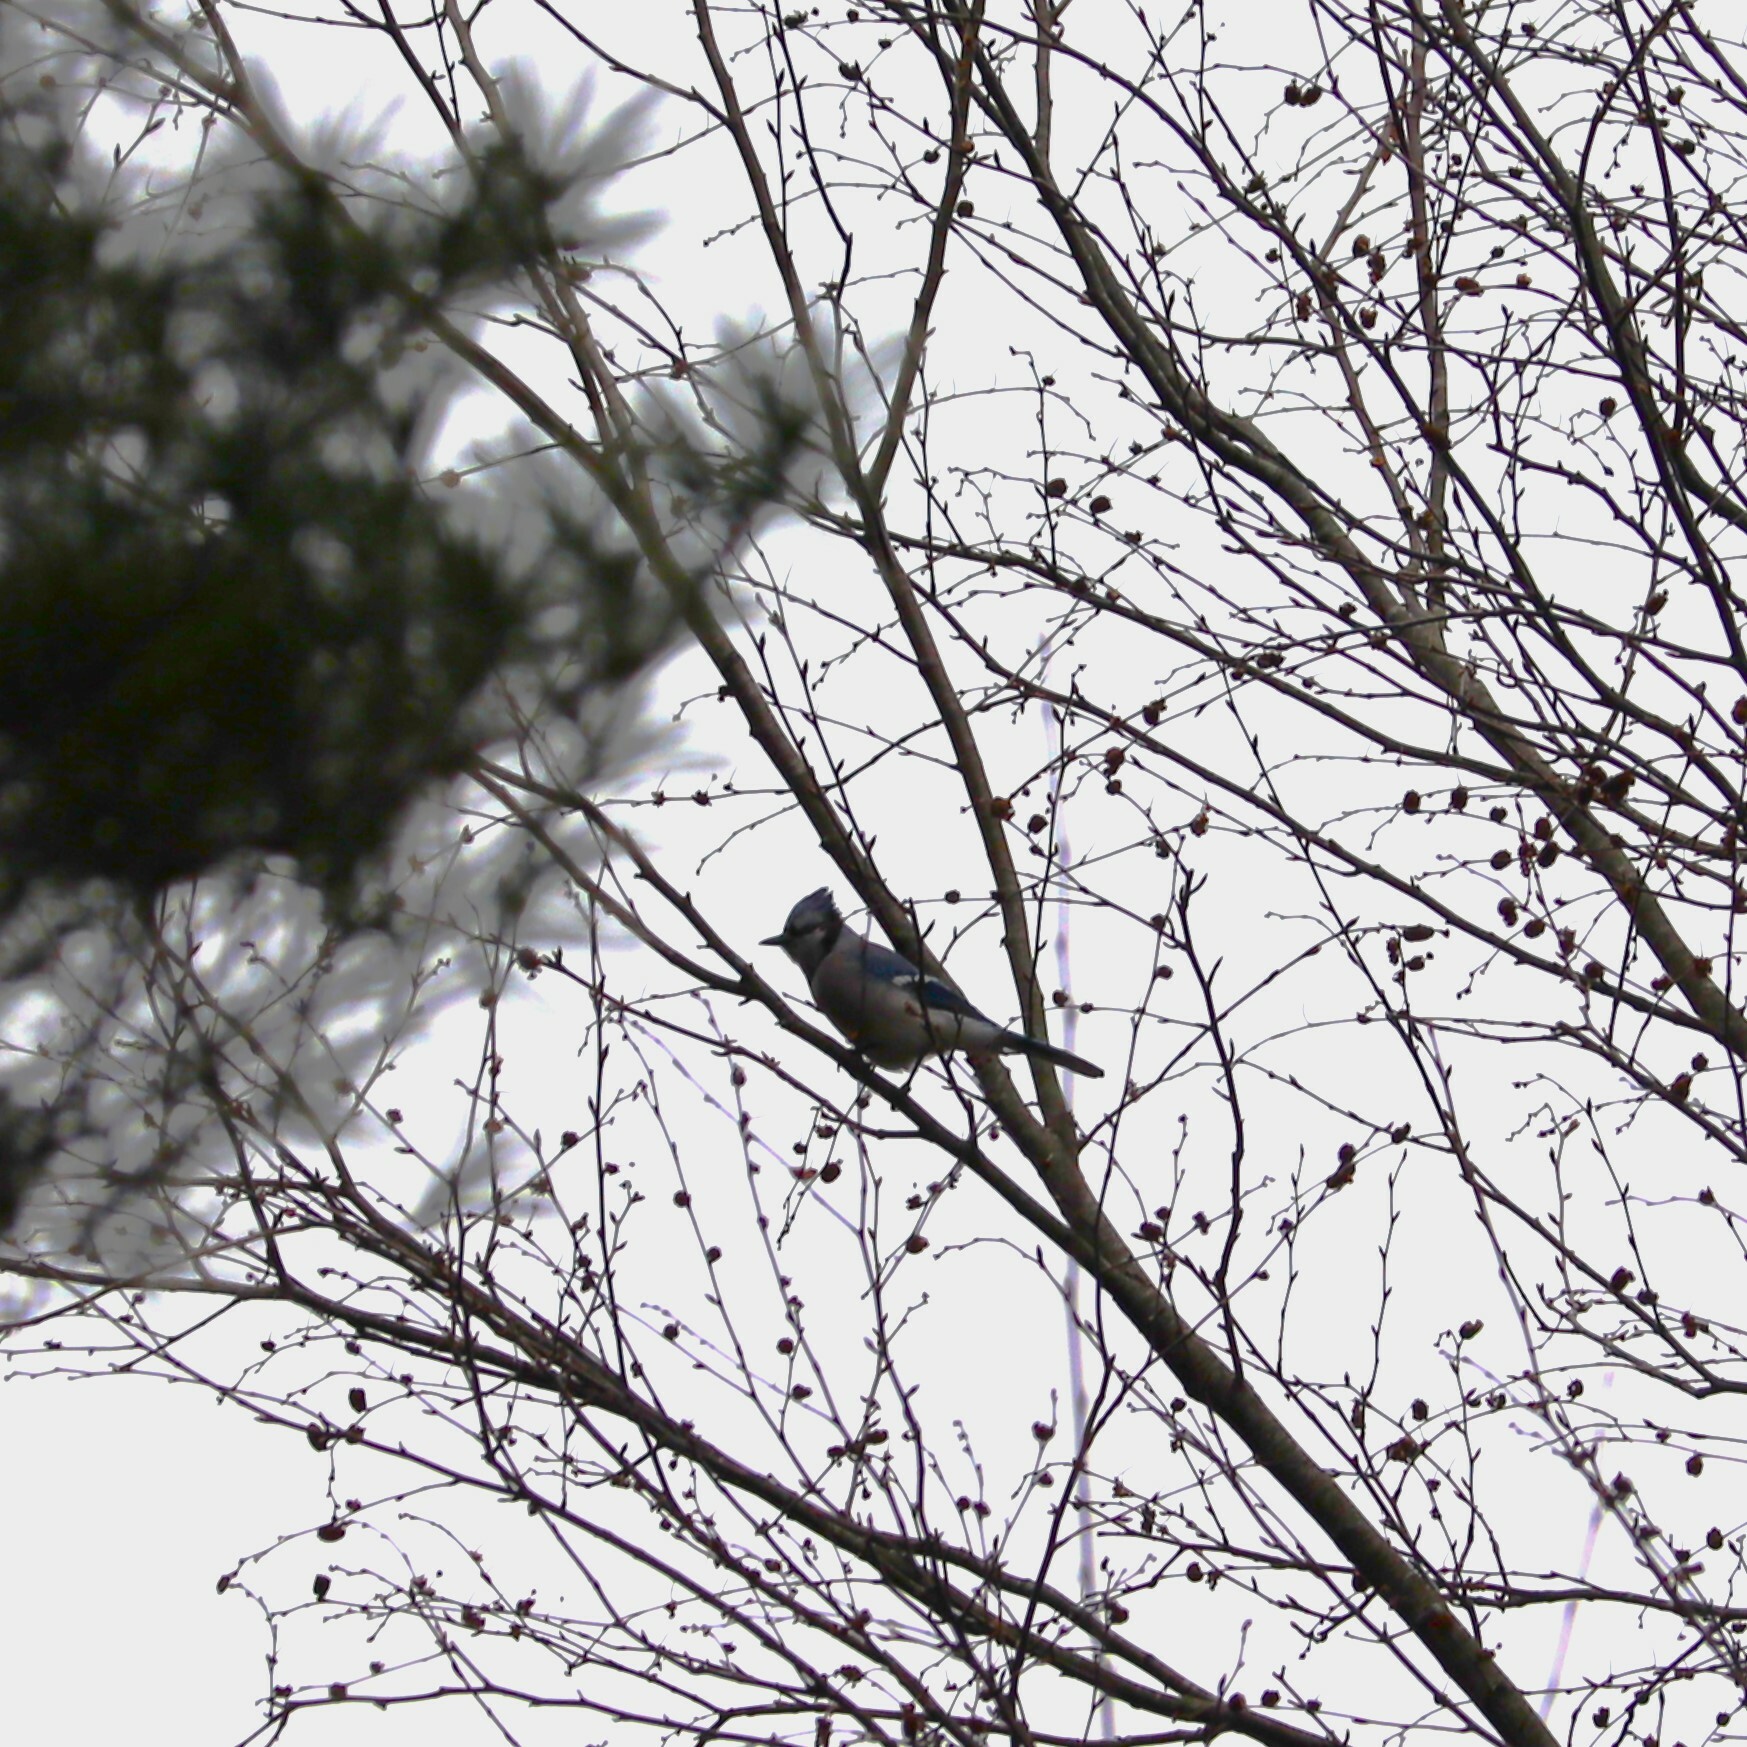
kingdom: Animalia
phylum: Chordata
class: Aves
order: Passeriformes
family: Corvidae
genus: Cyanocitta
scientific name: Cyanocitta cristata
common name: Blue jay
